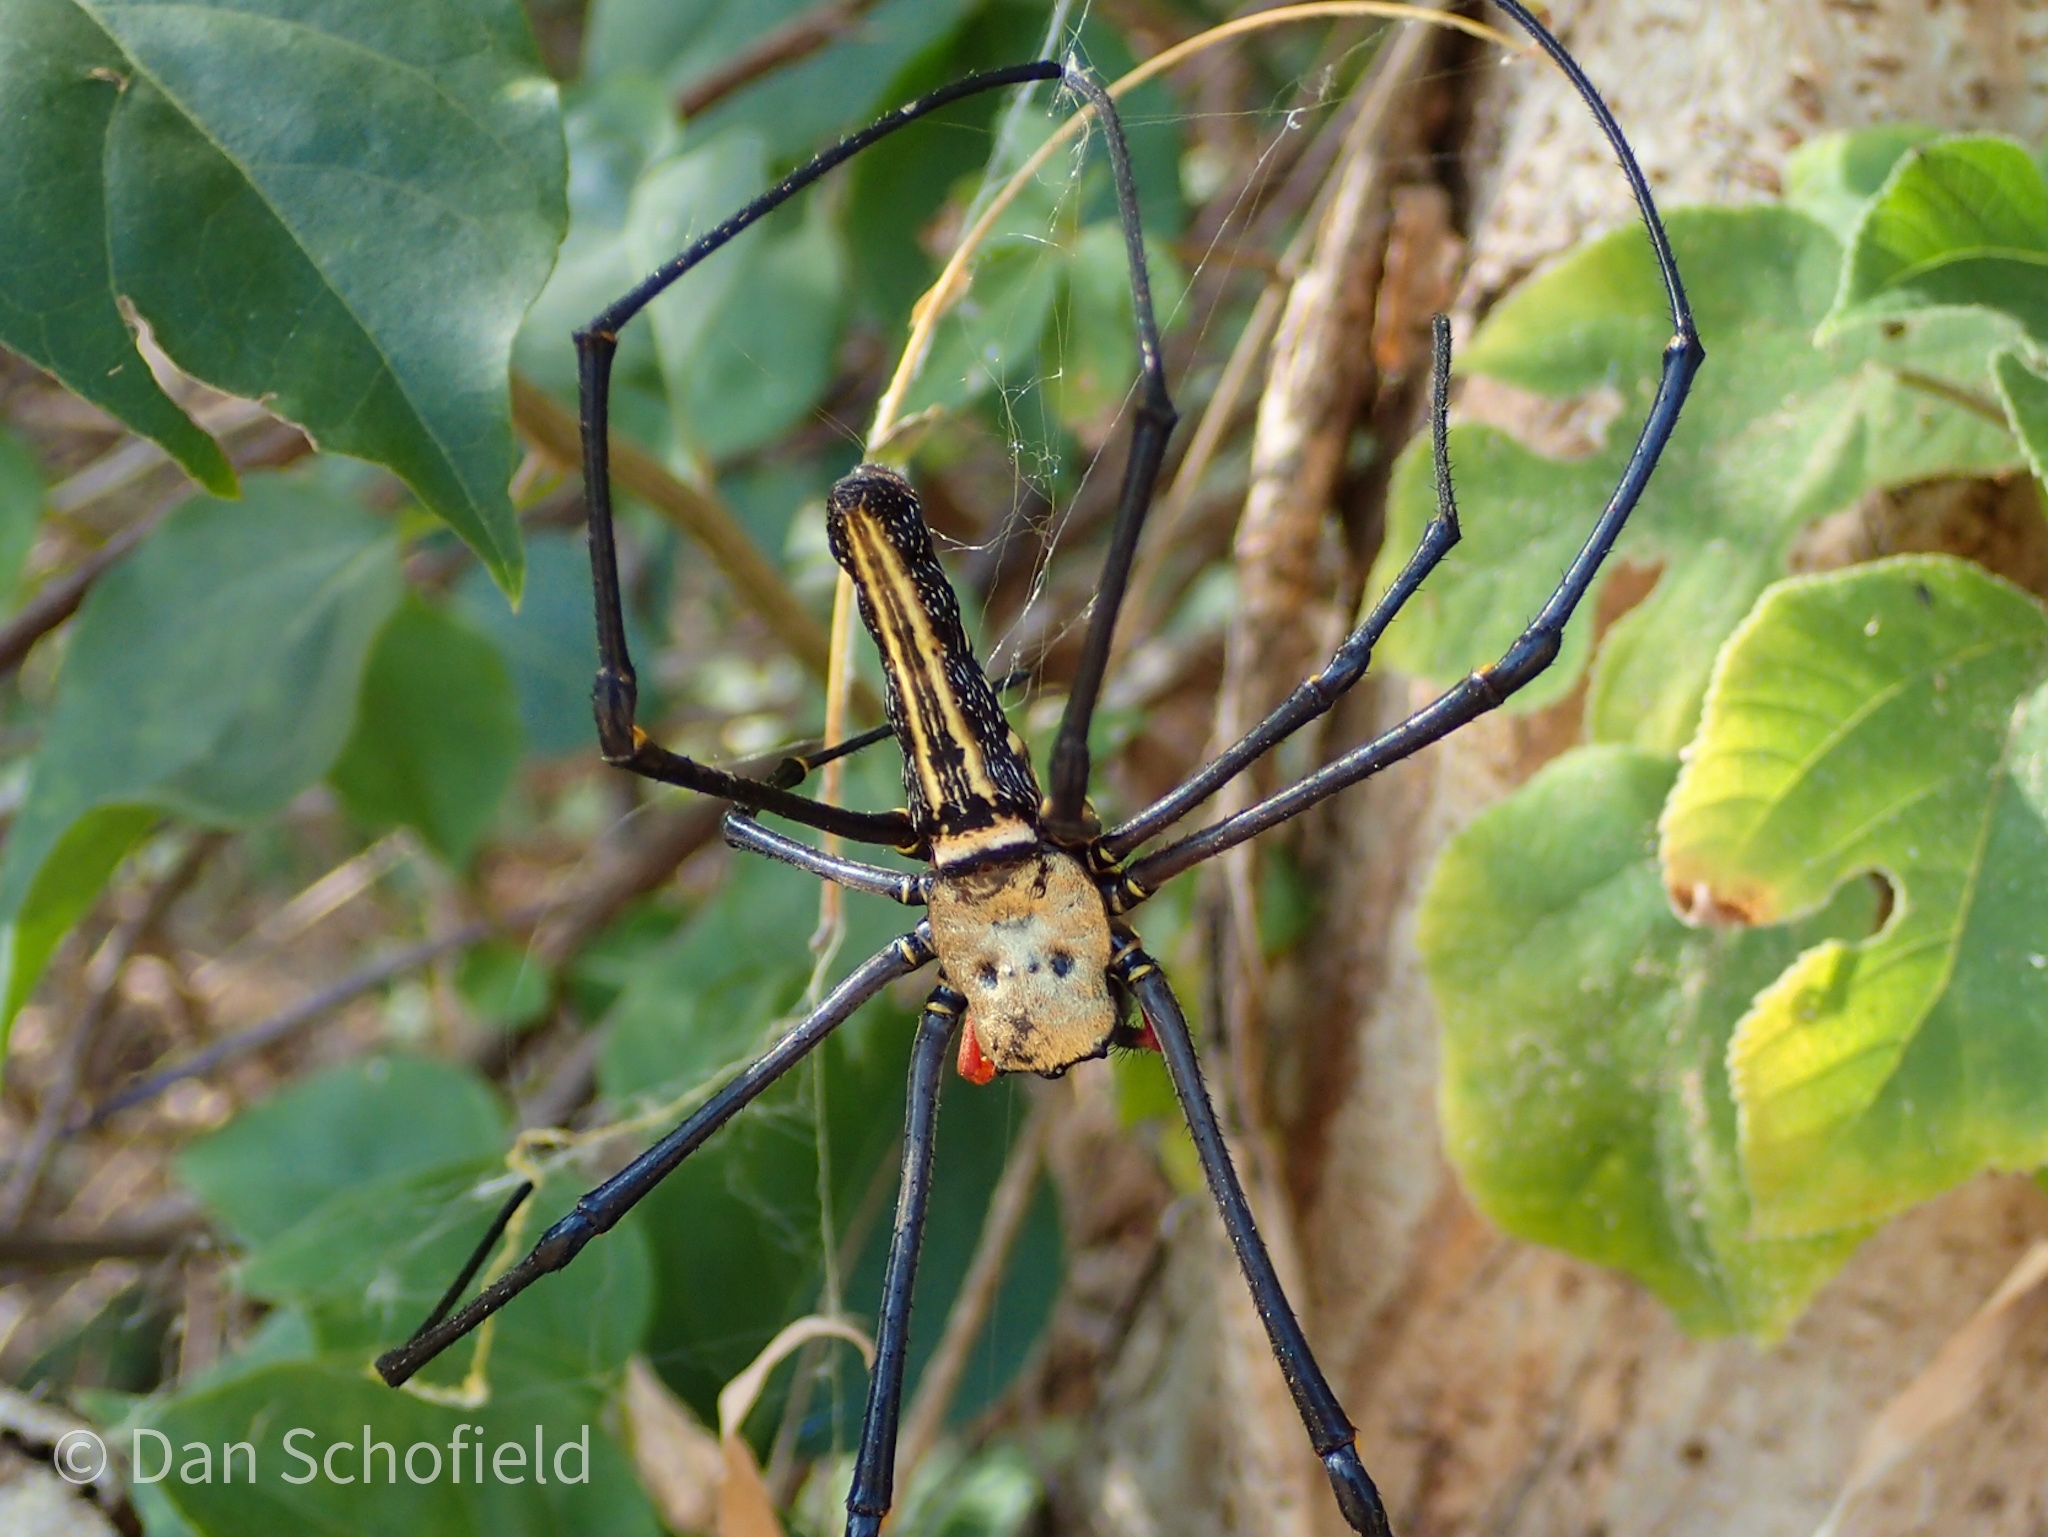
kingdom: Animalia
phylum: Arthropoda
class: Arachnida
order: Araneae
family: Araneidae
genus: Nephila
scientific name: Nephila pilipes
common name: Giant golden orb weaver
